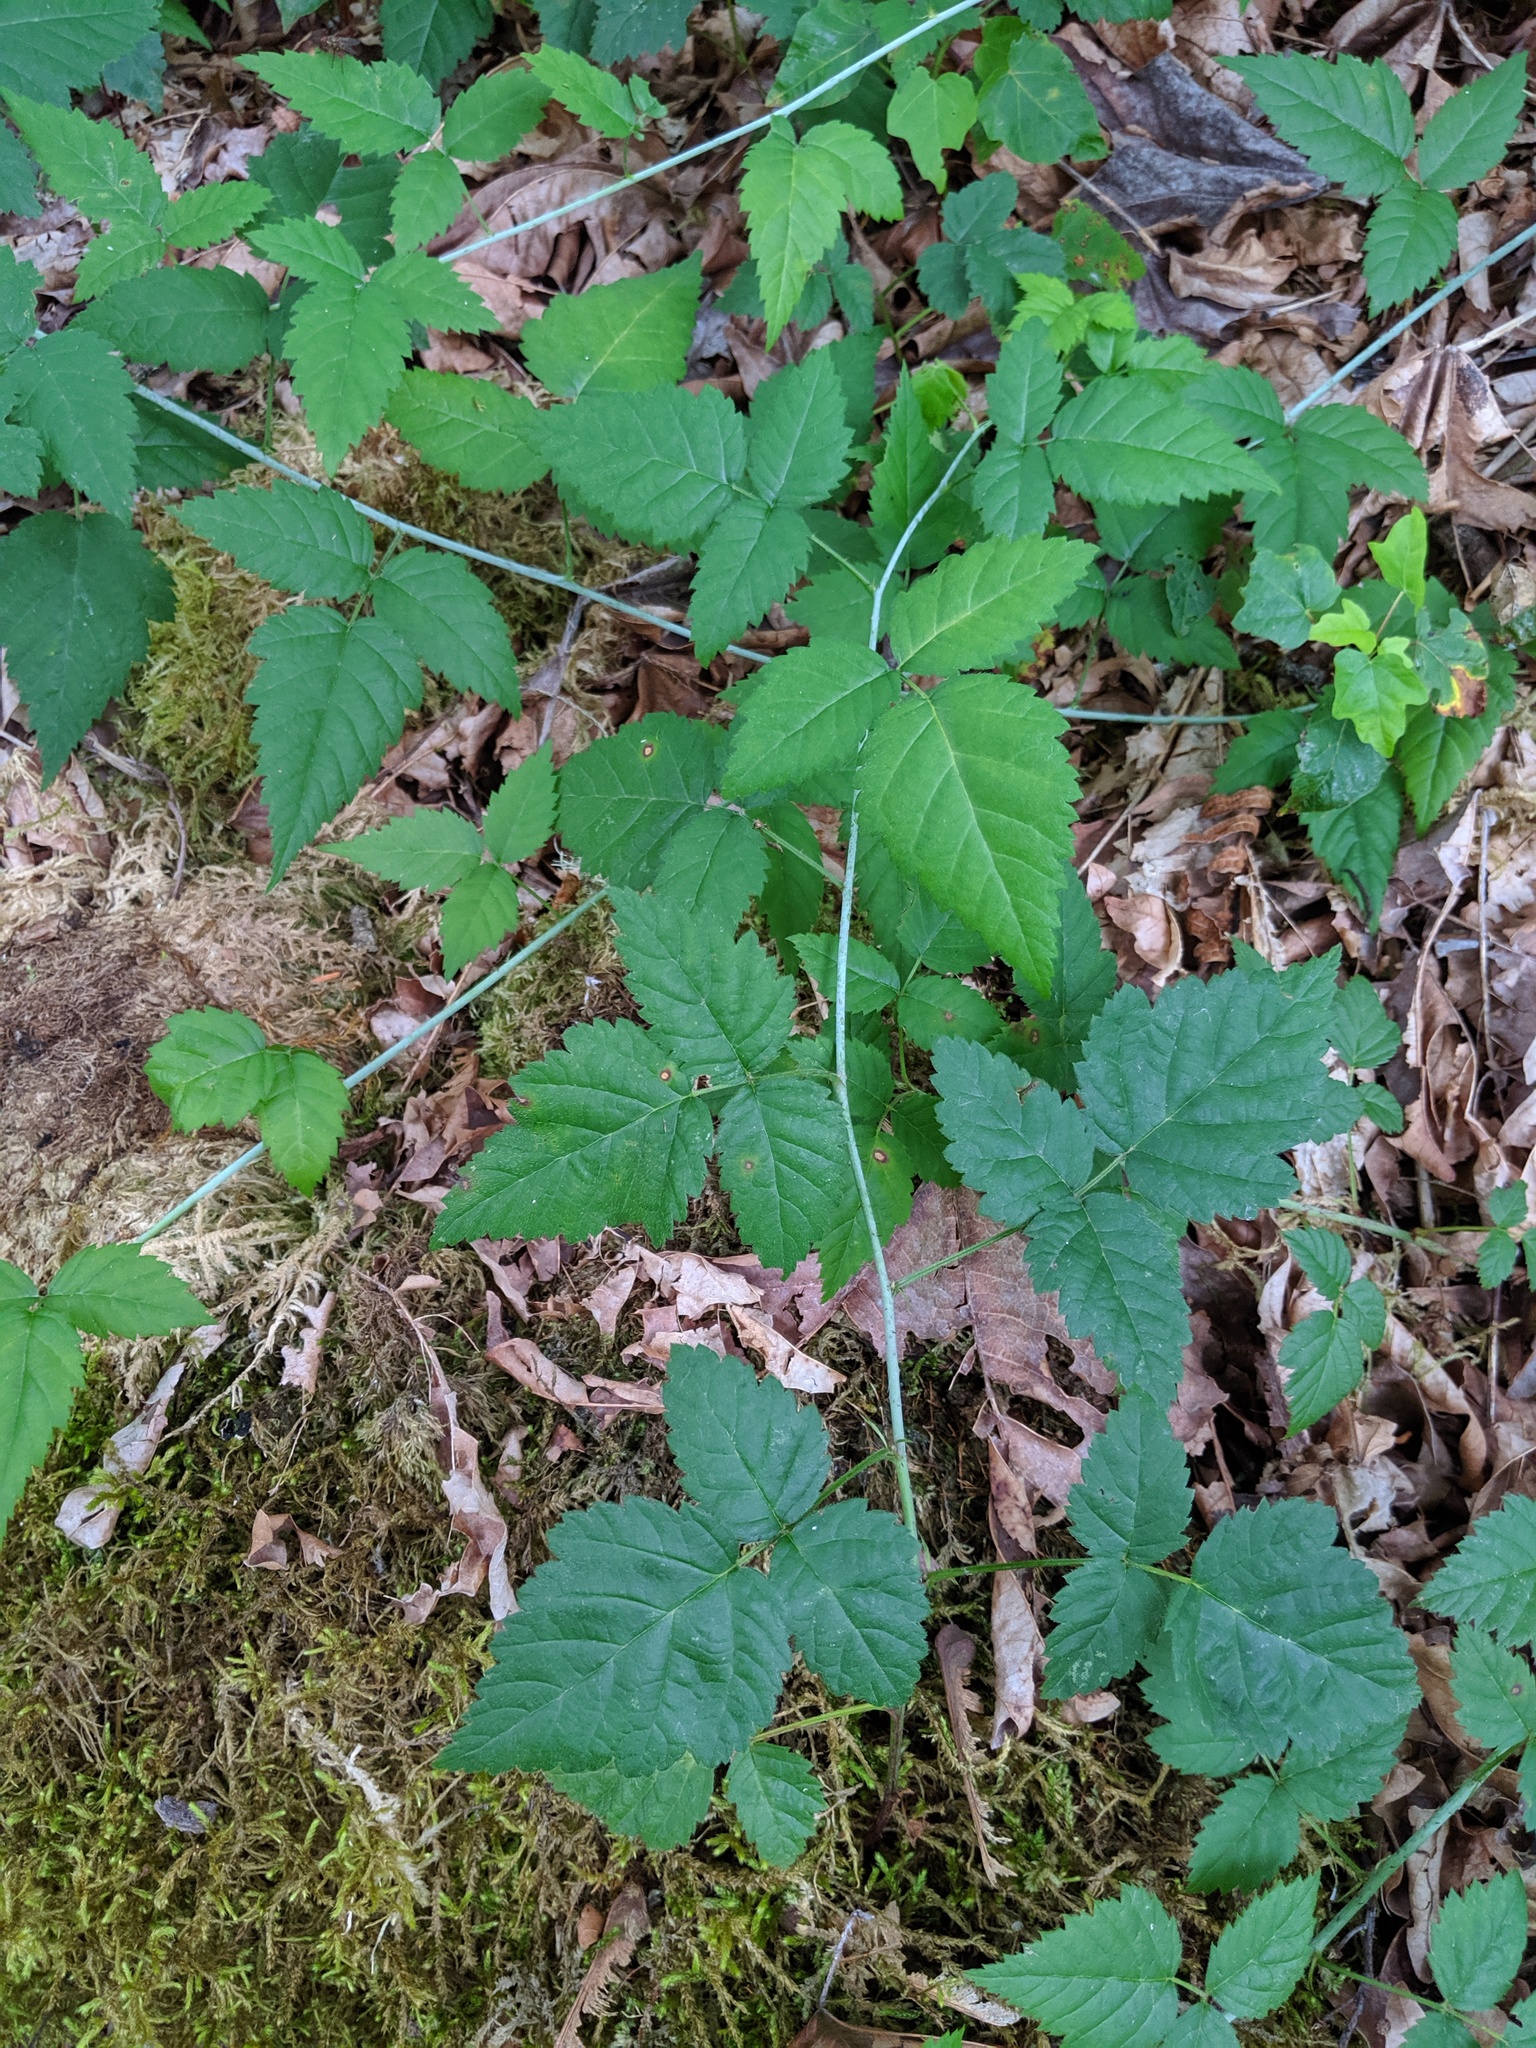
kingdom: Plantae
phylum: Tracheophyta
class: Magnoliopsida
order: Rosales
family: Rosaceae
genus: Rubus
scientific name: Rubus ursinus
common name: Pacific blackberry
